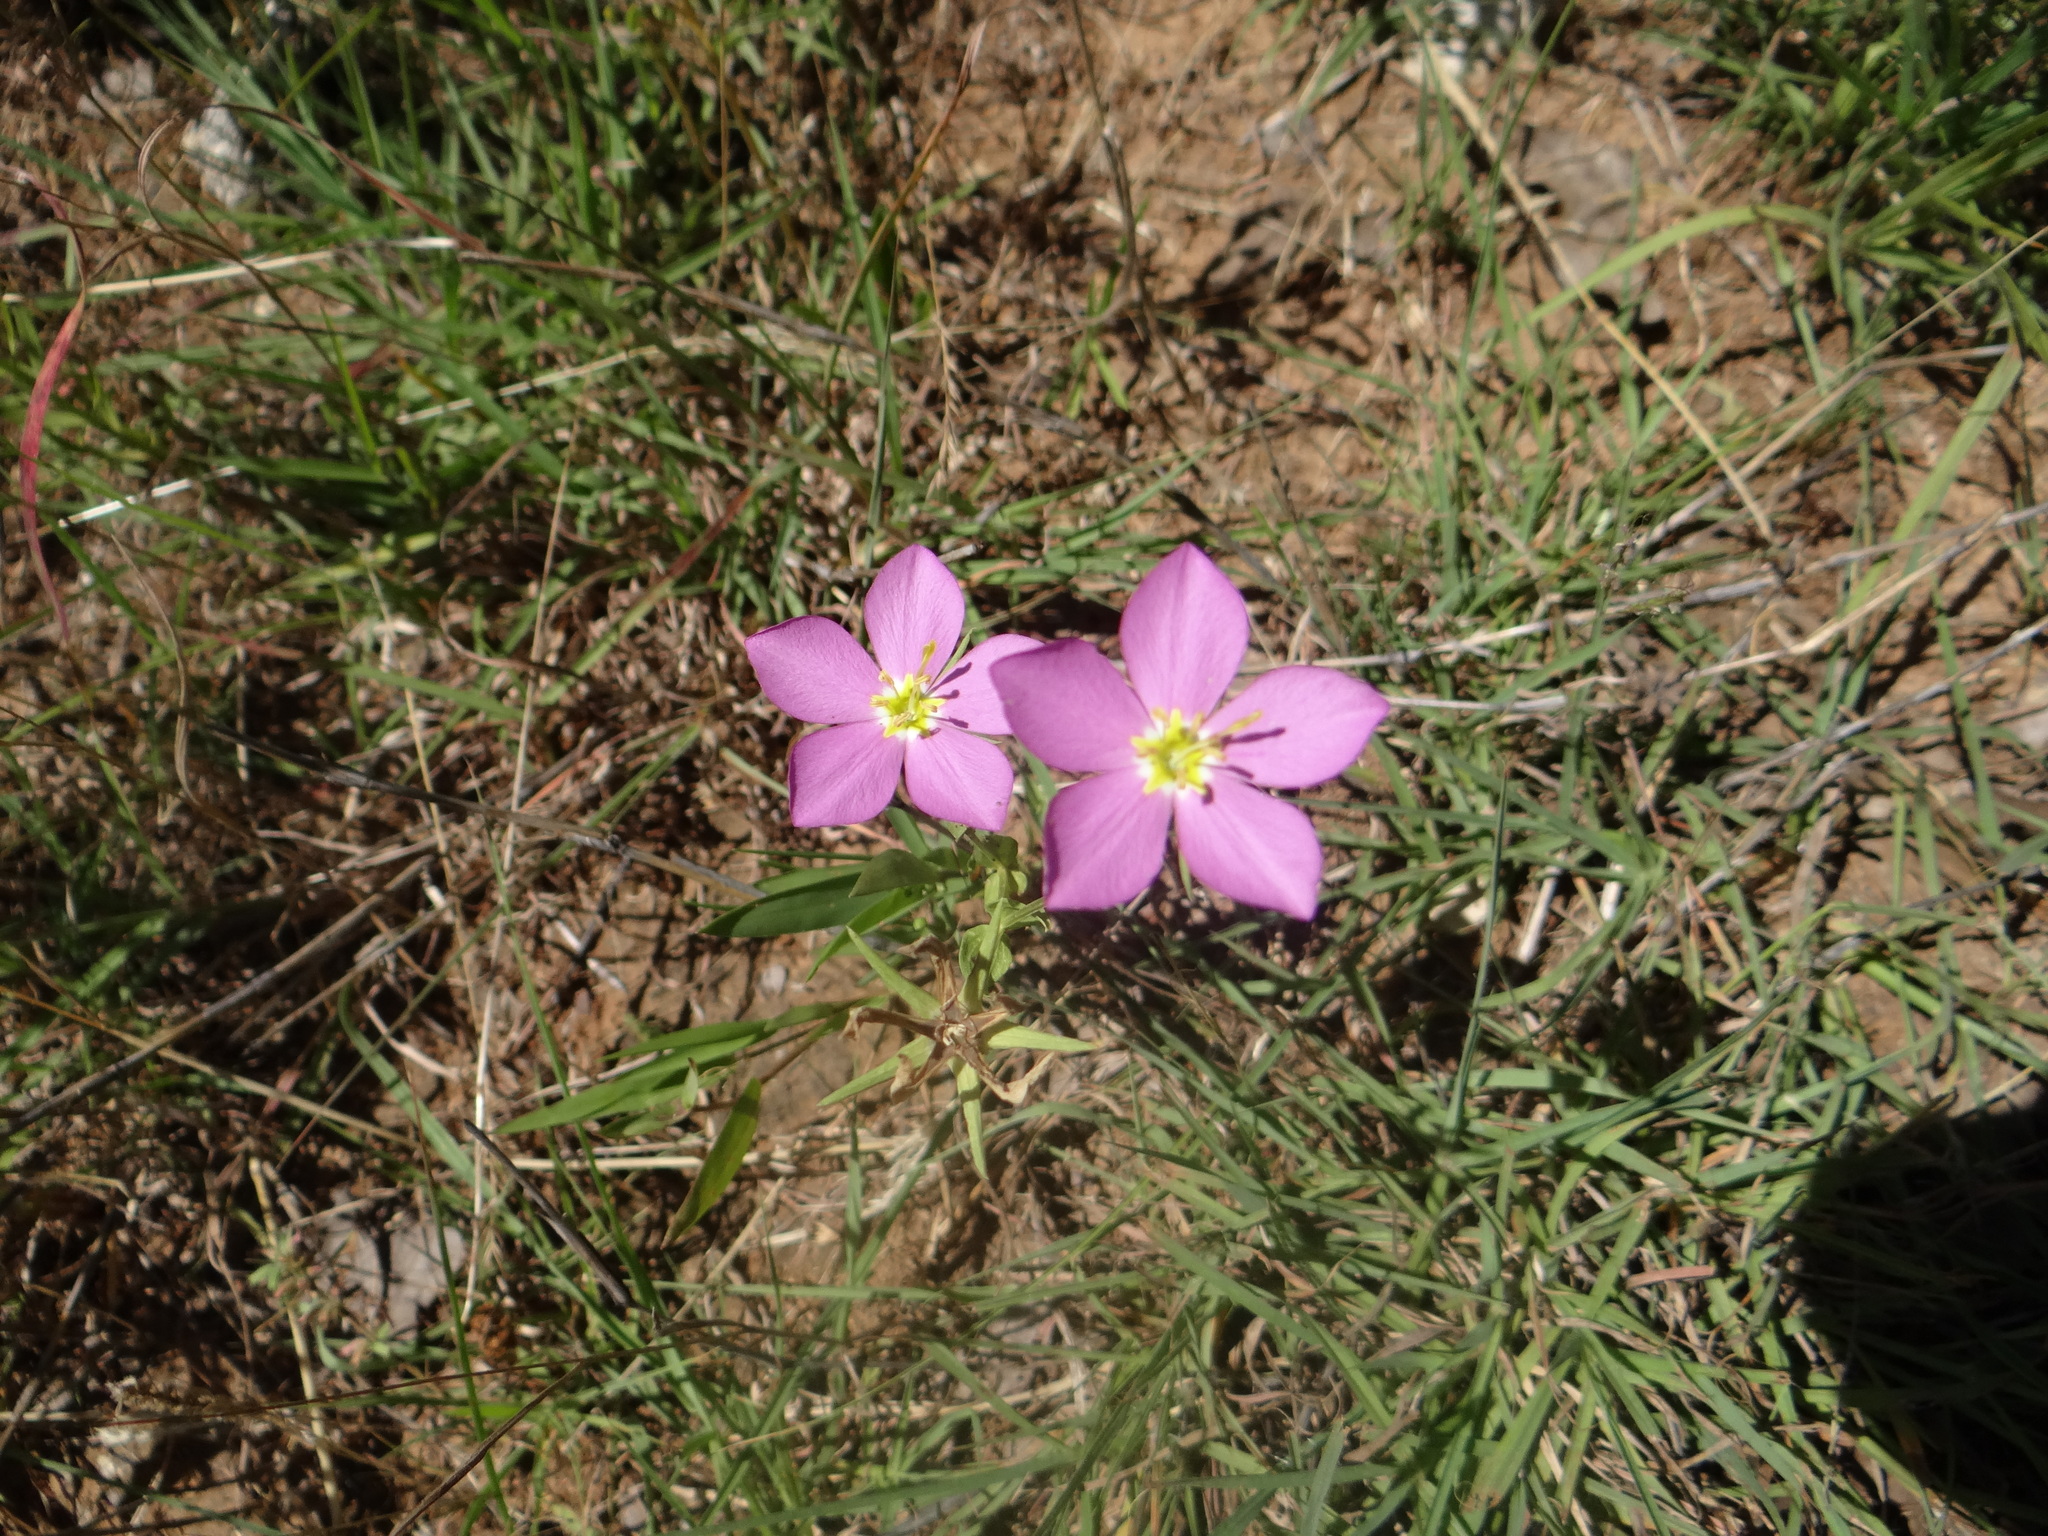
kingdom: Plantae
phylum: Tracheophyta
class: Magnoliopsida
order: Gentianales
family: Gentianaceae
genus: Sabatia
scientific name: Sabatia campestris
